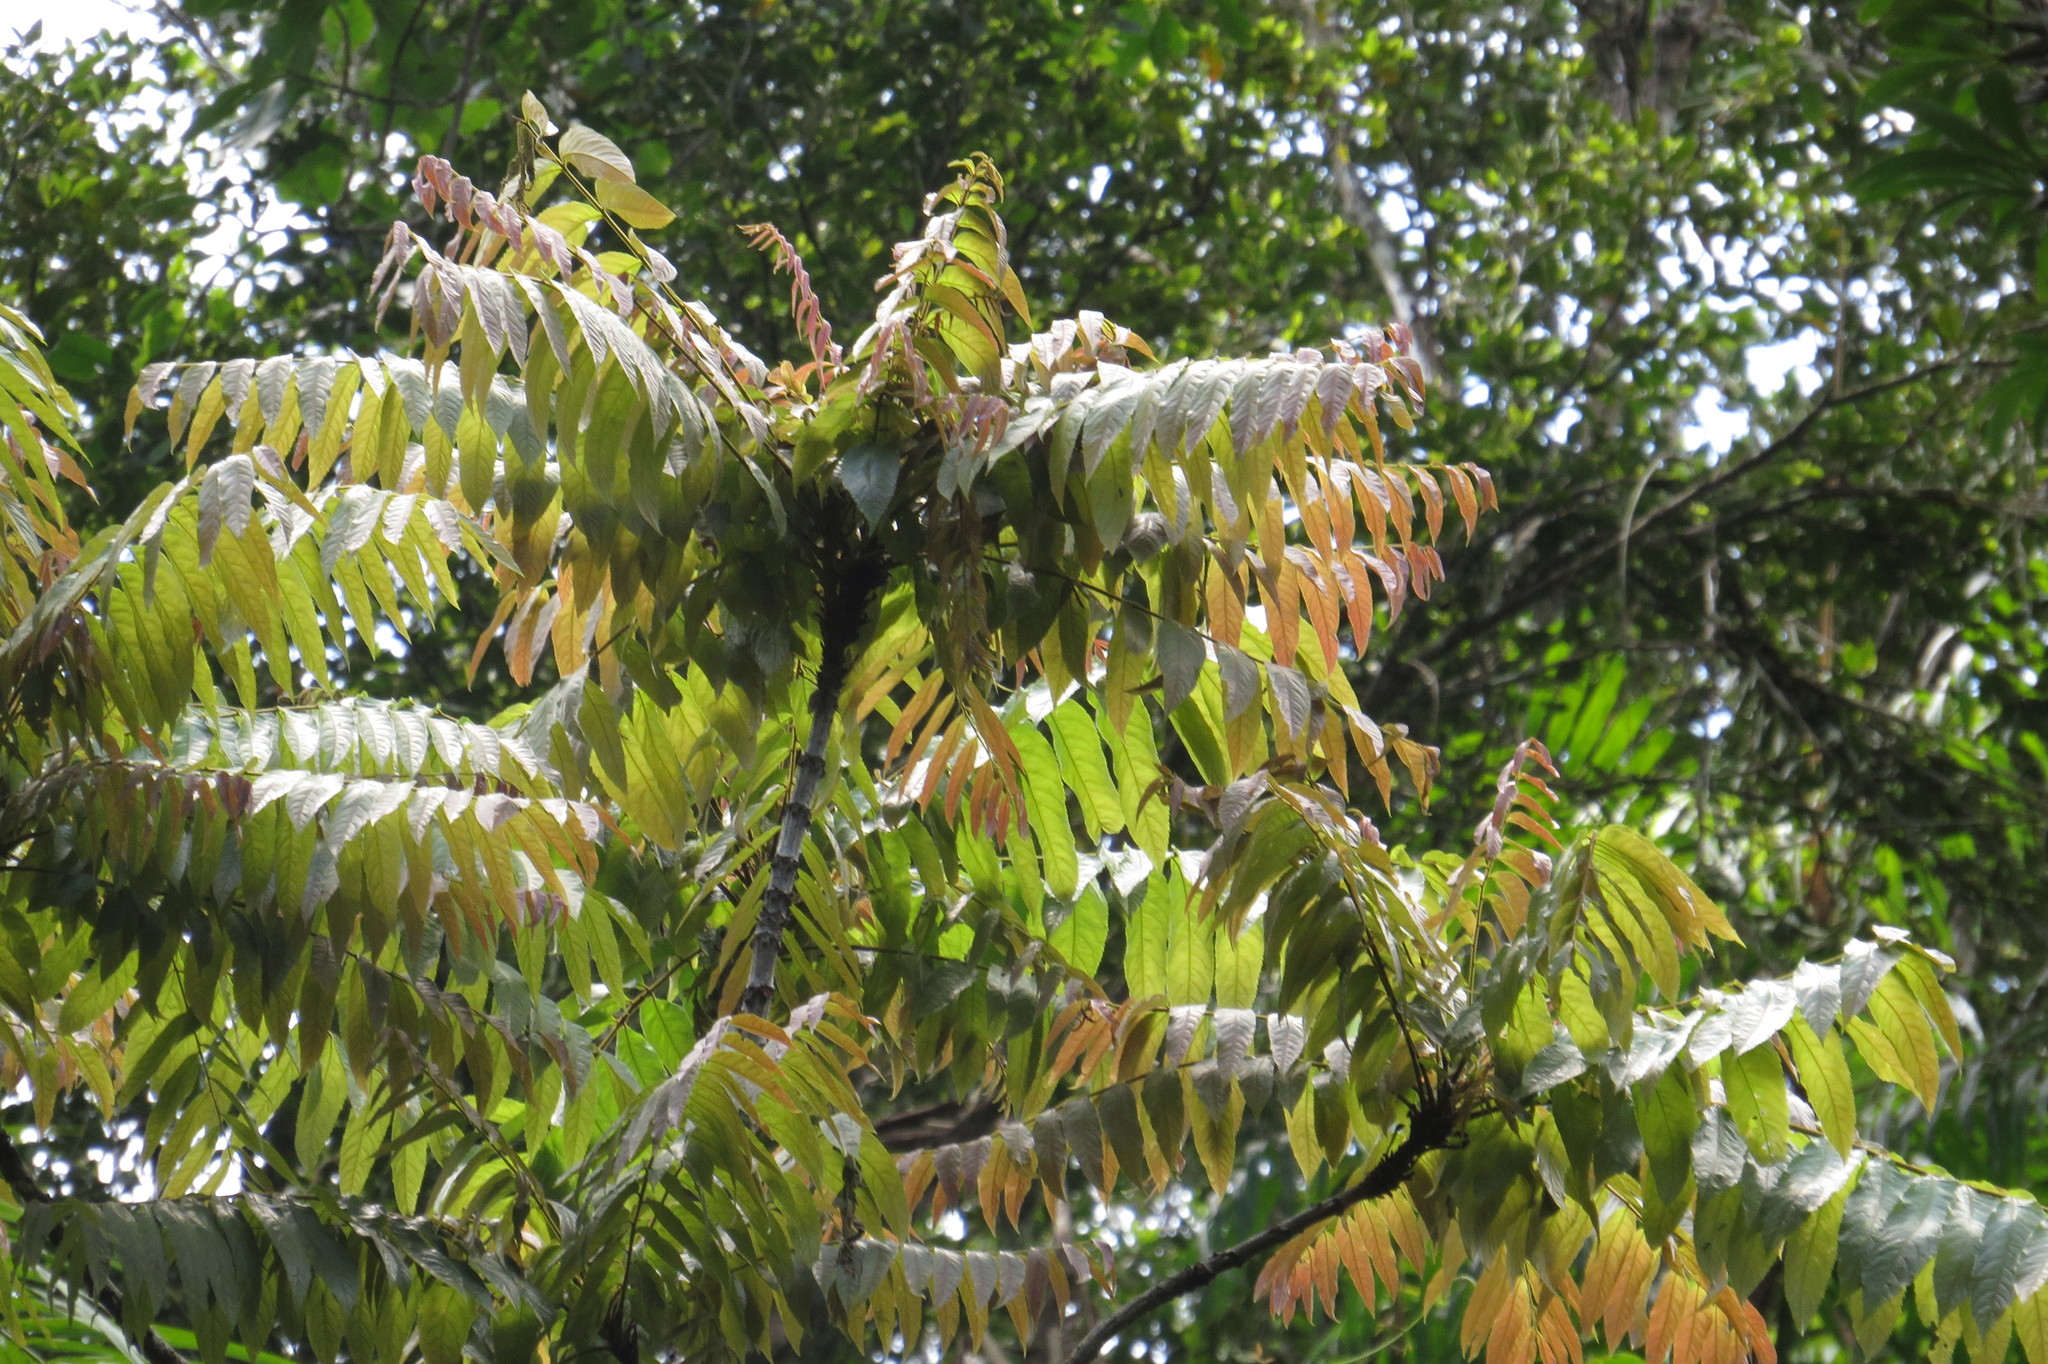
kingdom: Plantae
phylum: Tracheophyta
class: Magnoliopsida
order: Sapindales
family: Sapindaceae
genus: Jagera
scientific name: Jagera madida
